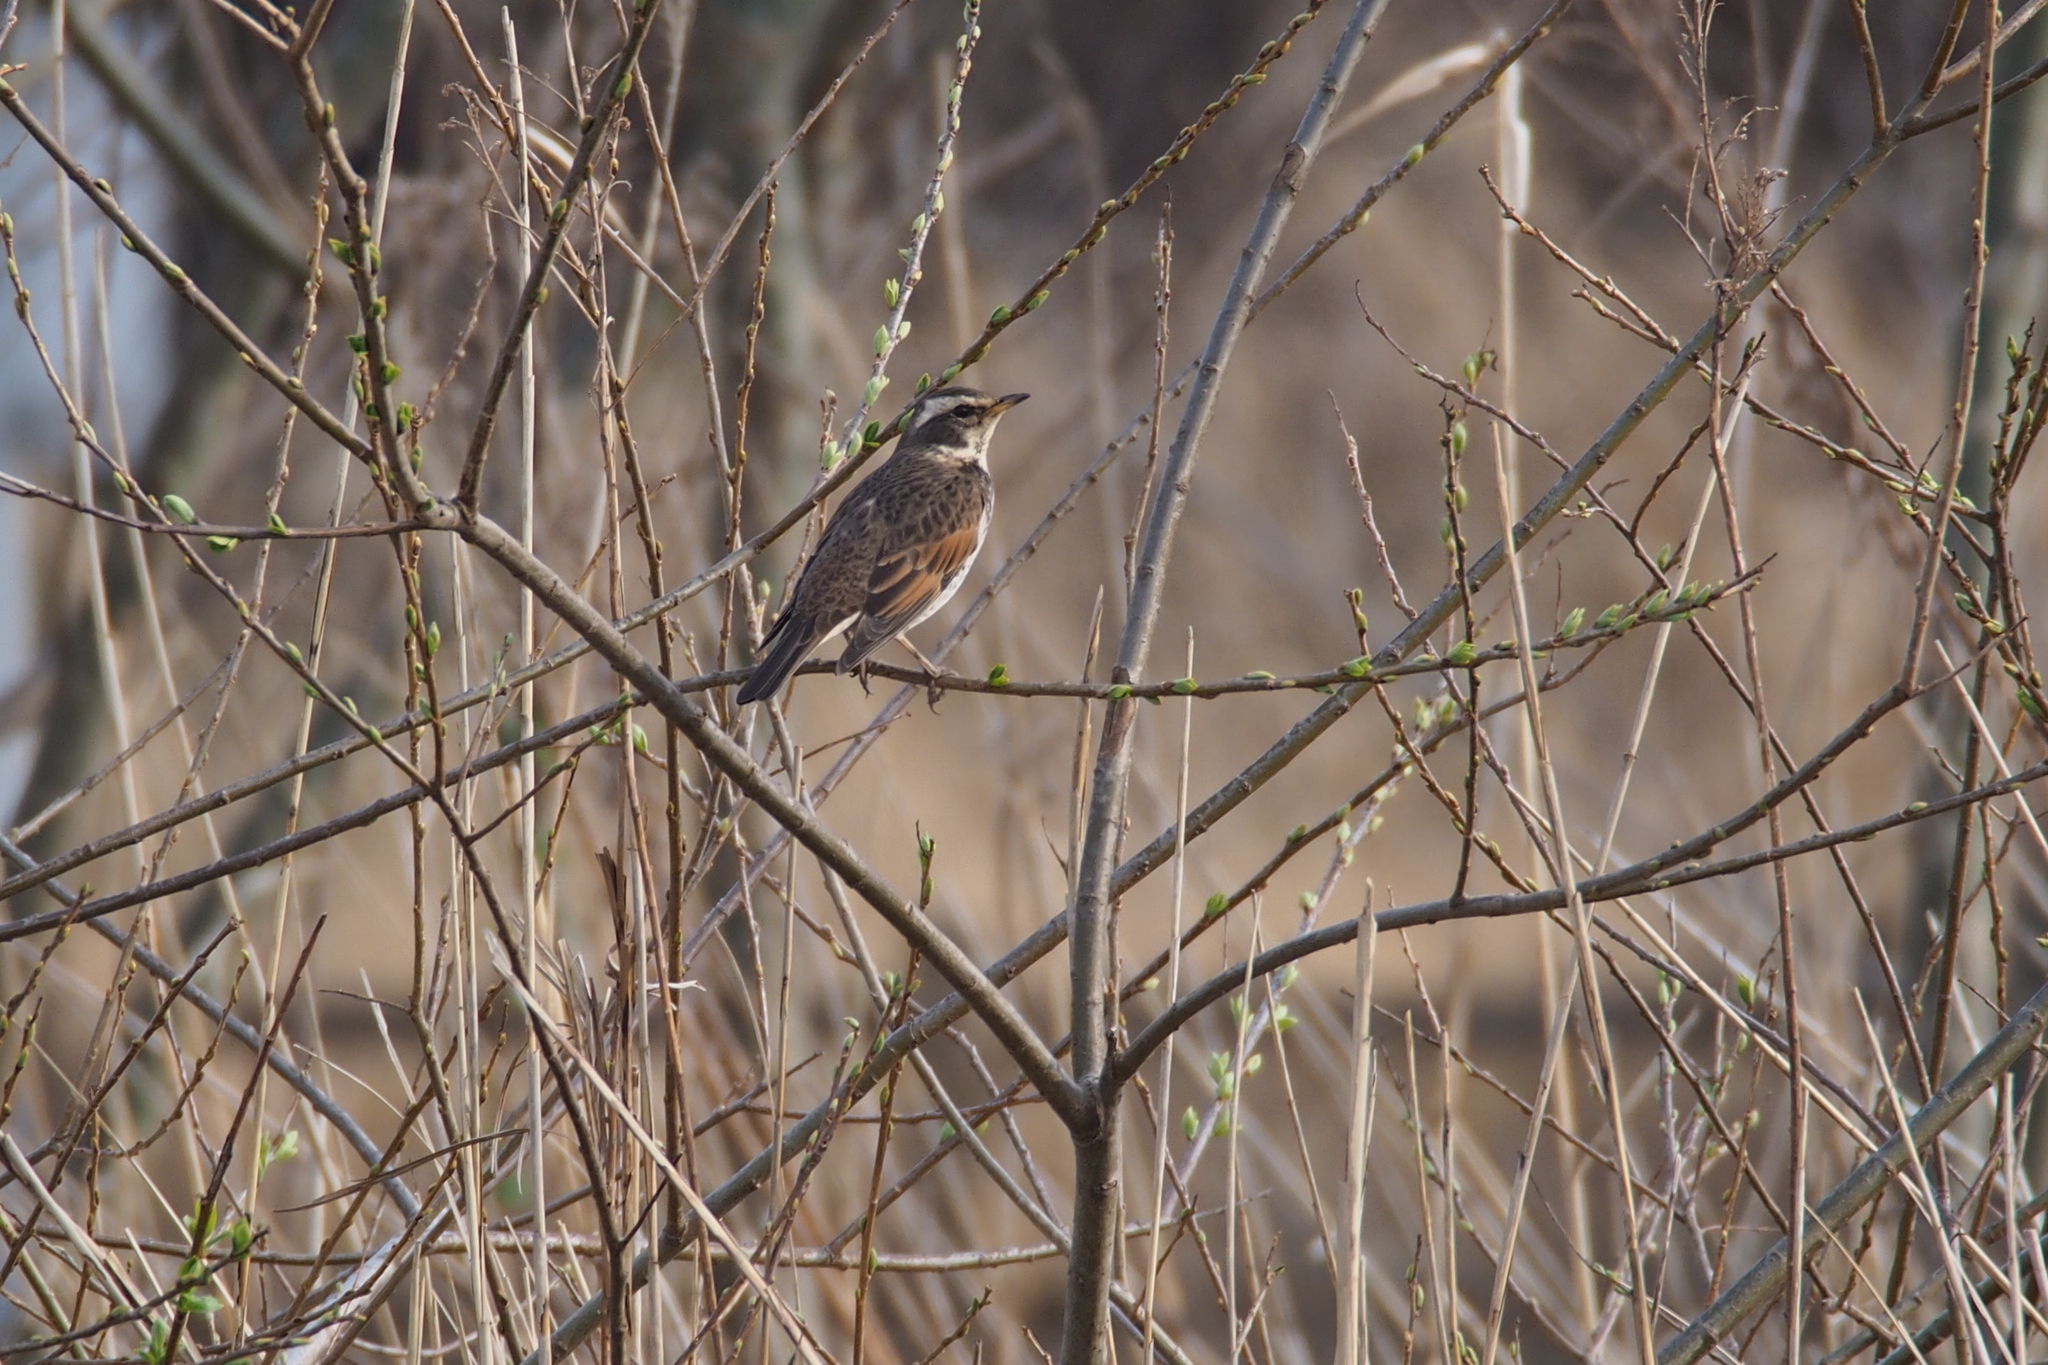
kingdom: Animalia
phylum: Chordata
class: Aves
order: Passeriformes
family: Turdidae
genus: Turdus
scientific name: Turdus eunomus
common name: Dusky thrush
